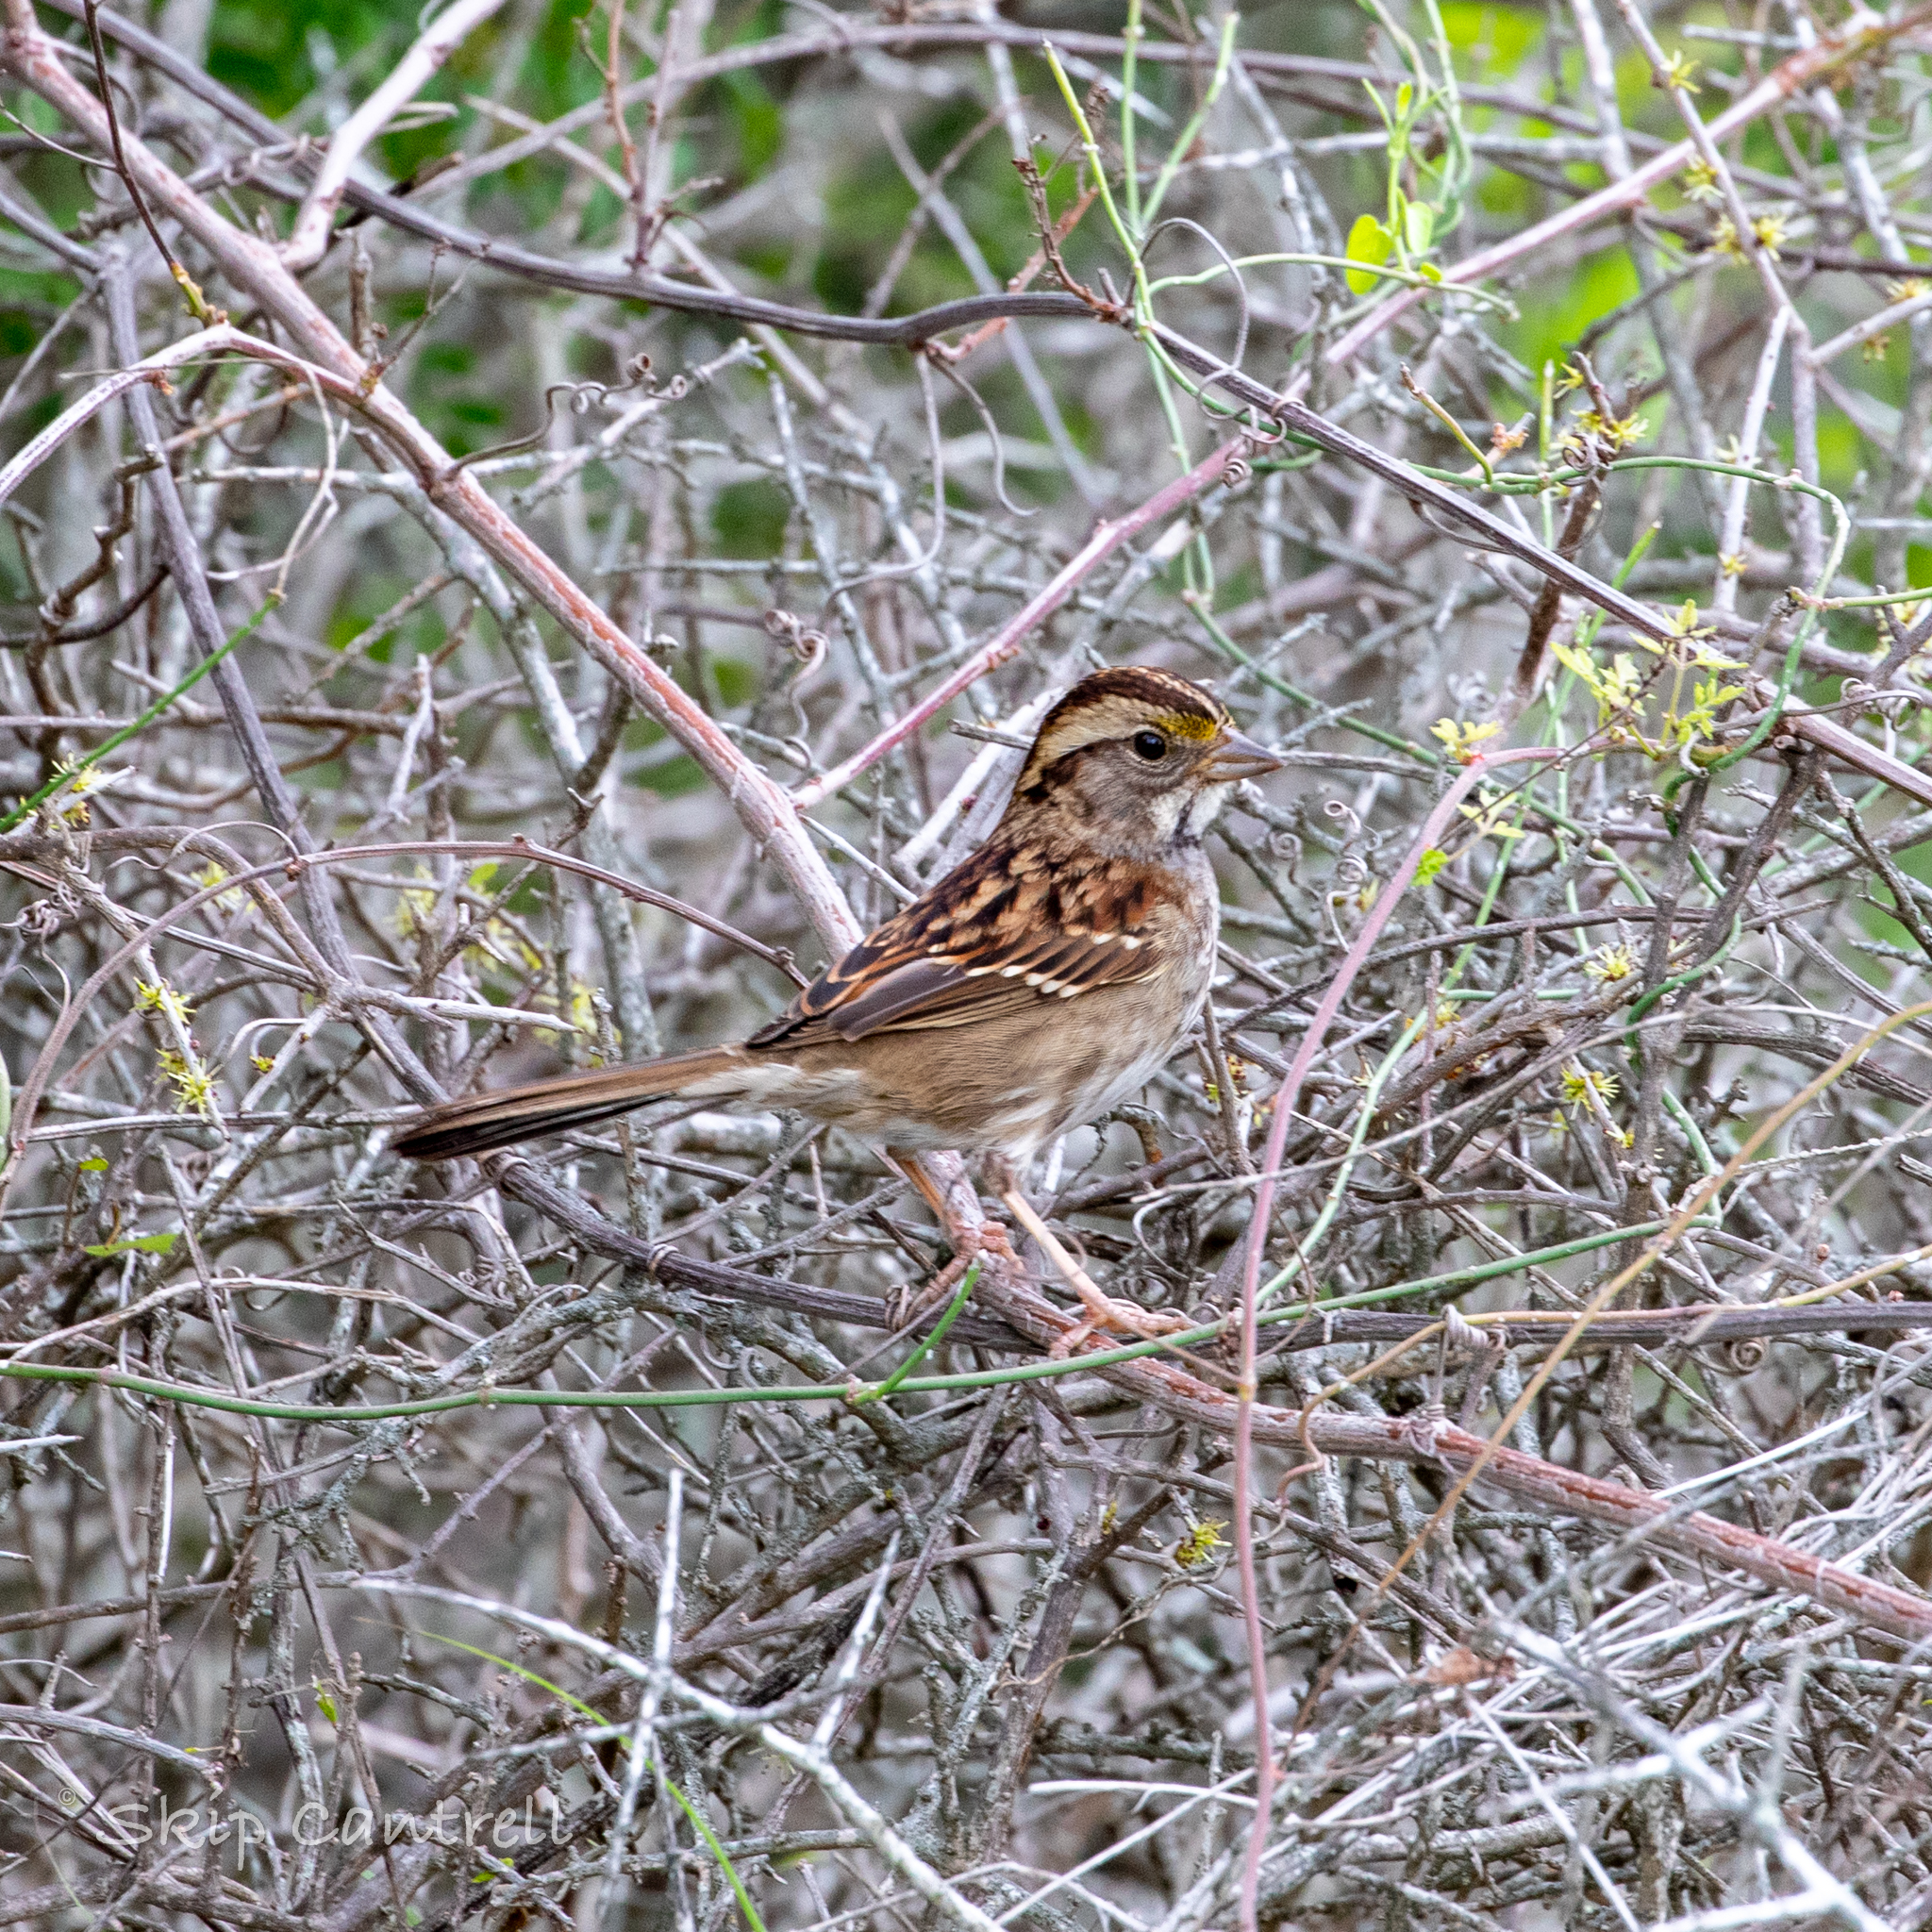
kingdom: Animalia
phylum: Chordata
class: Aves
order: Passeriformes
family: Passerellidae
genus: Zonotrichia
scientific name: Zonotrichia albicollis
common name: White-throated sparrow
